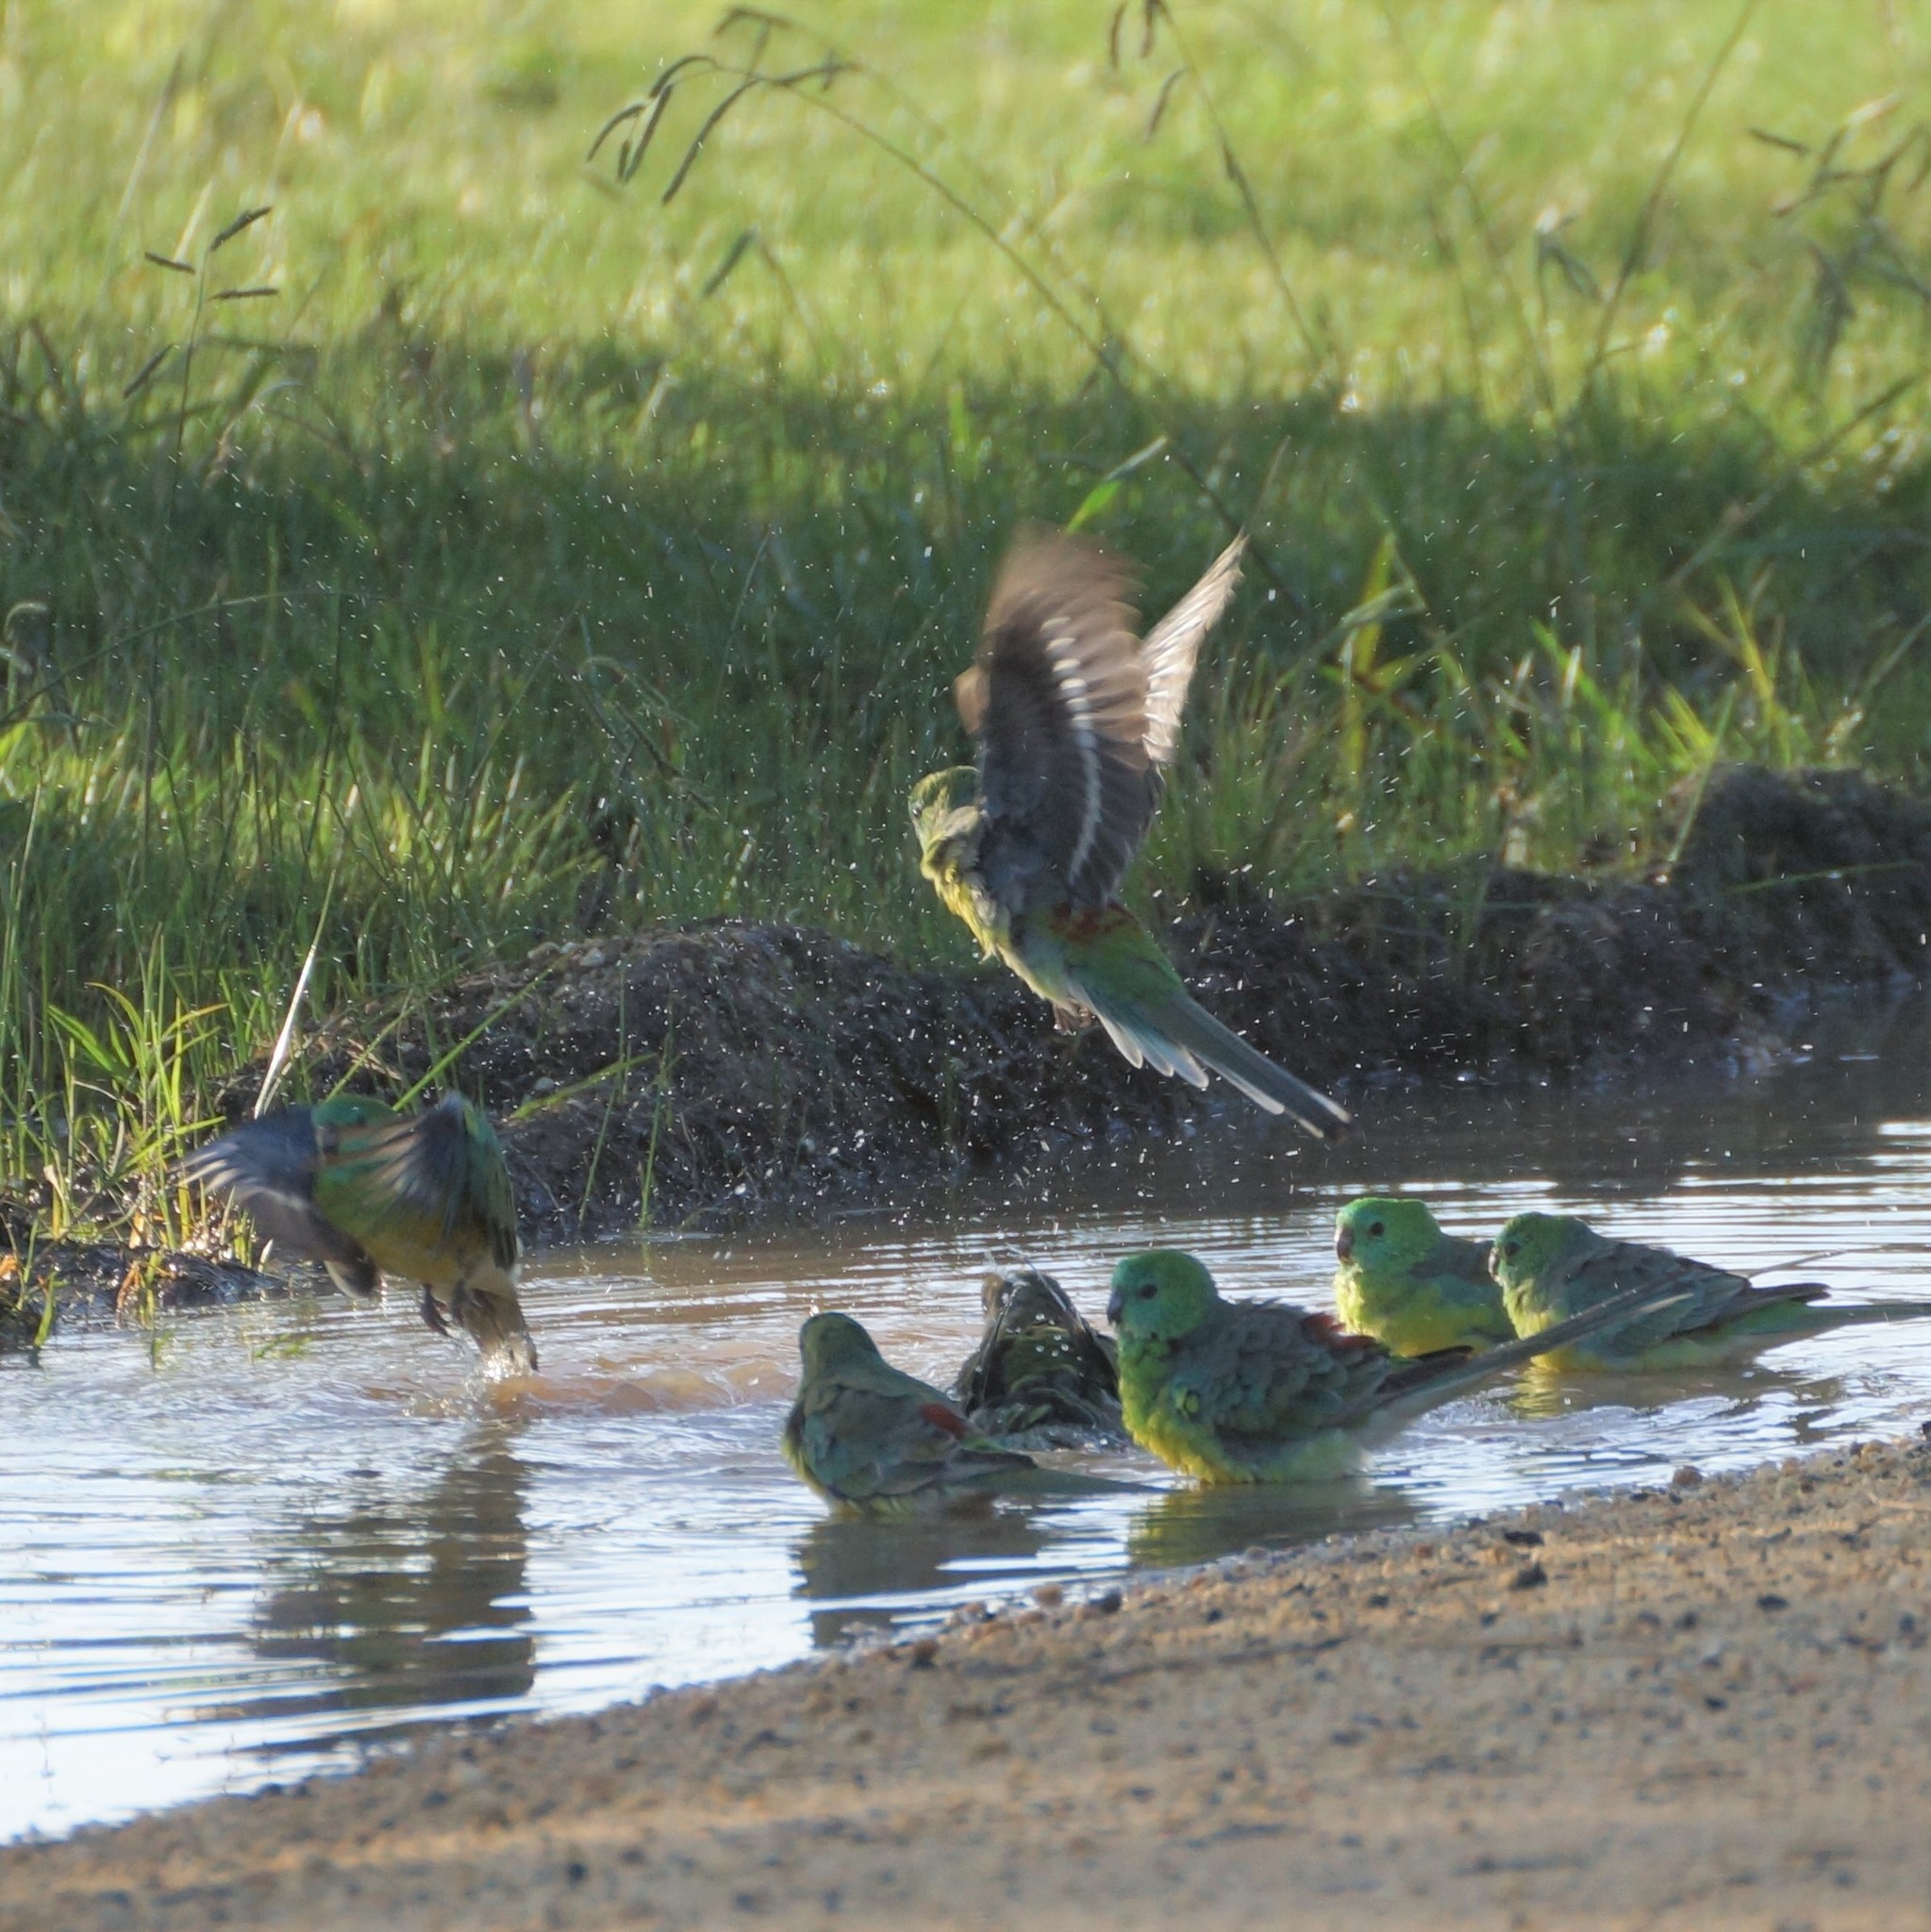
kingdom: Animalia
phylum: Chordata
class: Aves
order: Psittaciformes
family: Psittacidae
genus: Psephotus
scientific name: Psephotus haematonotus
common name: Red-rumped parrot
